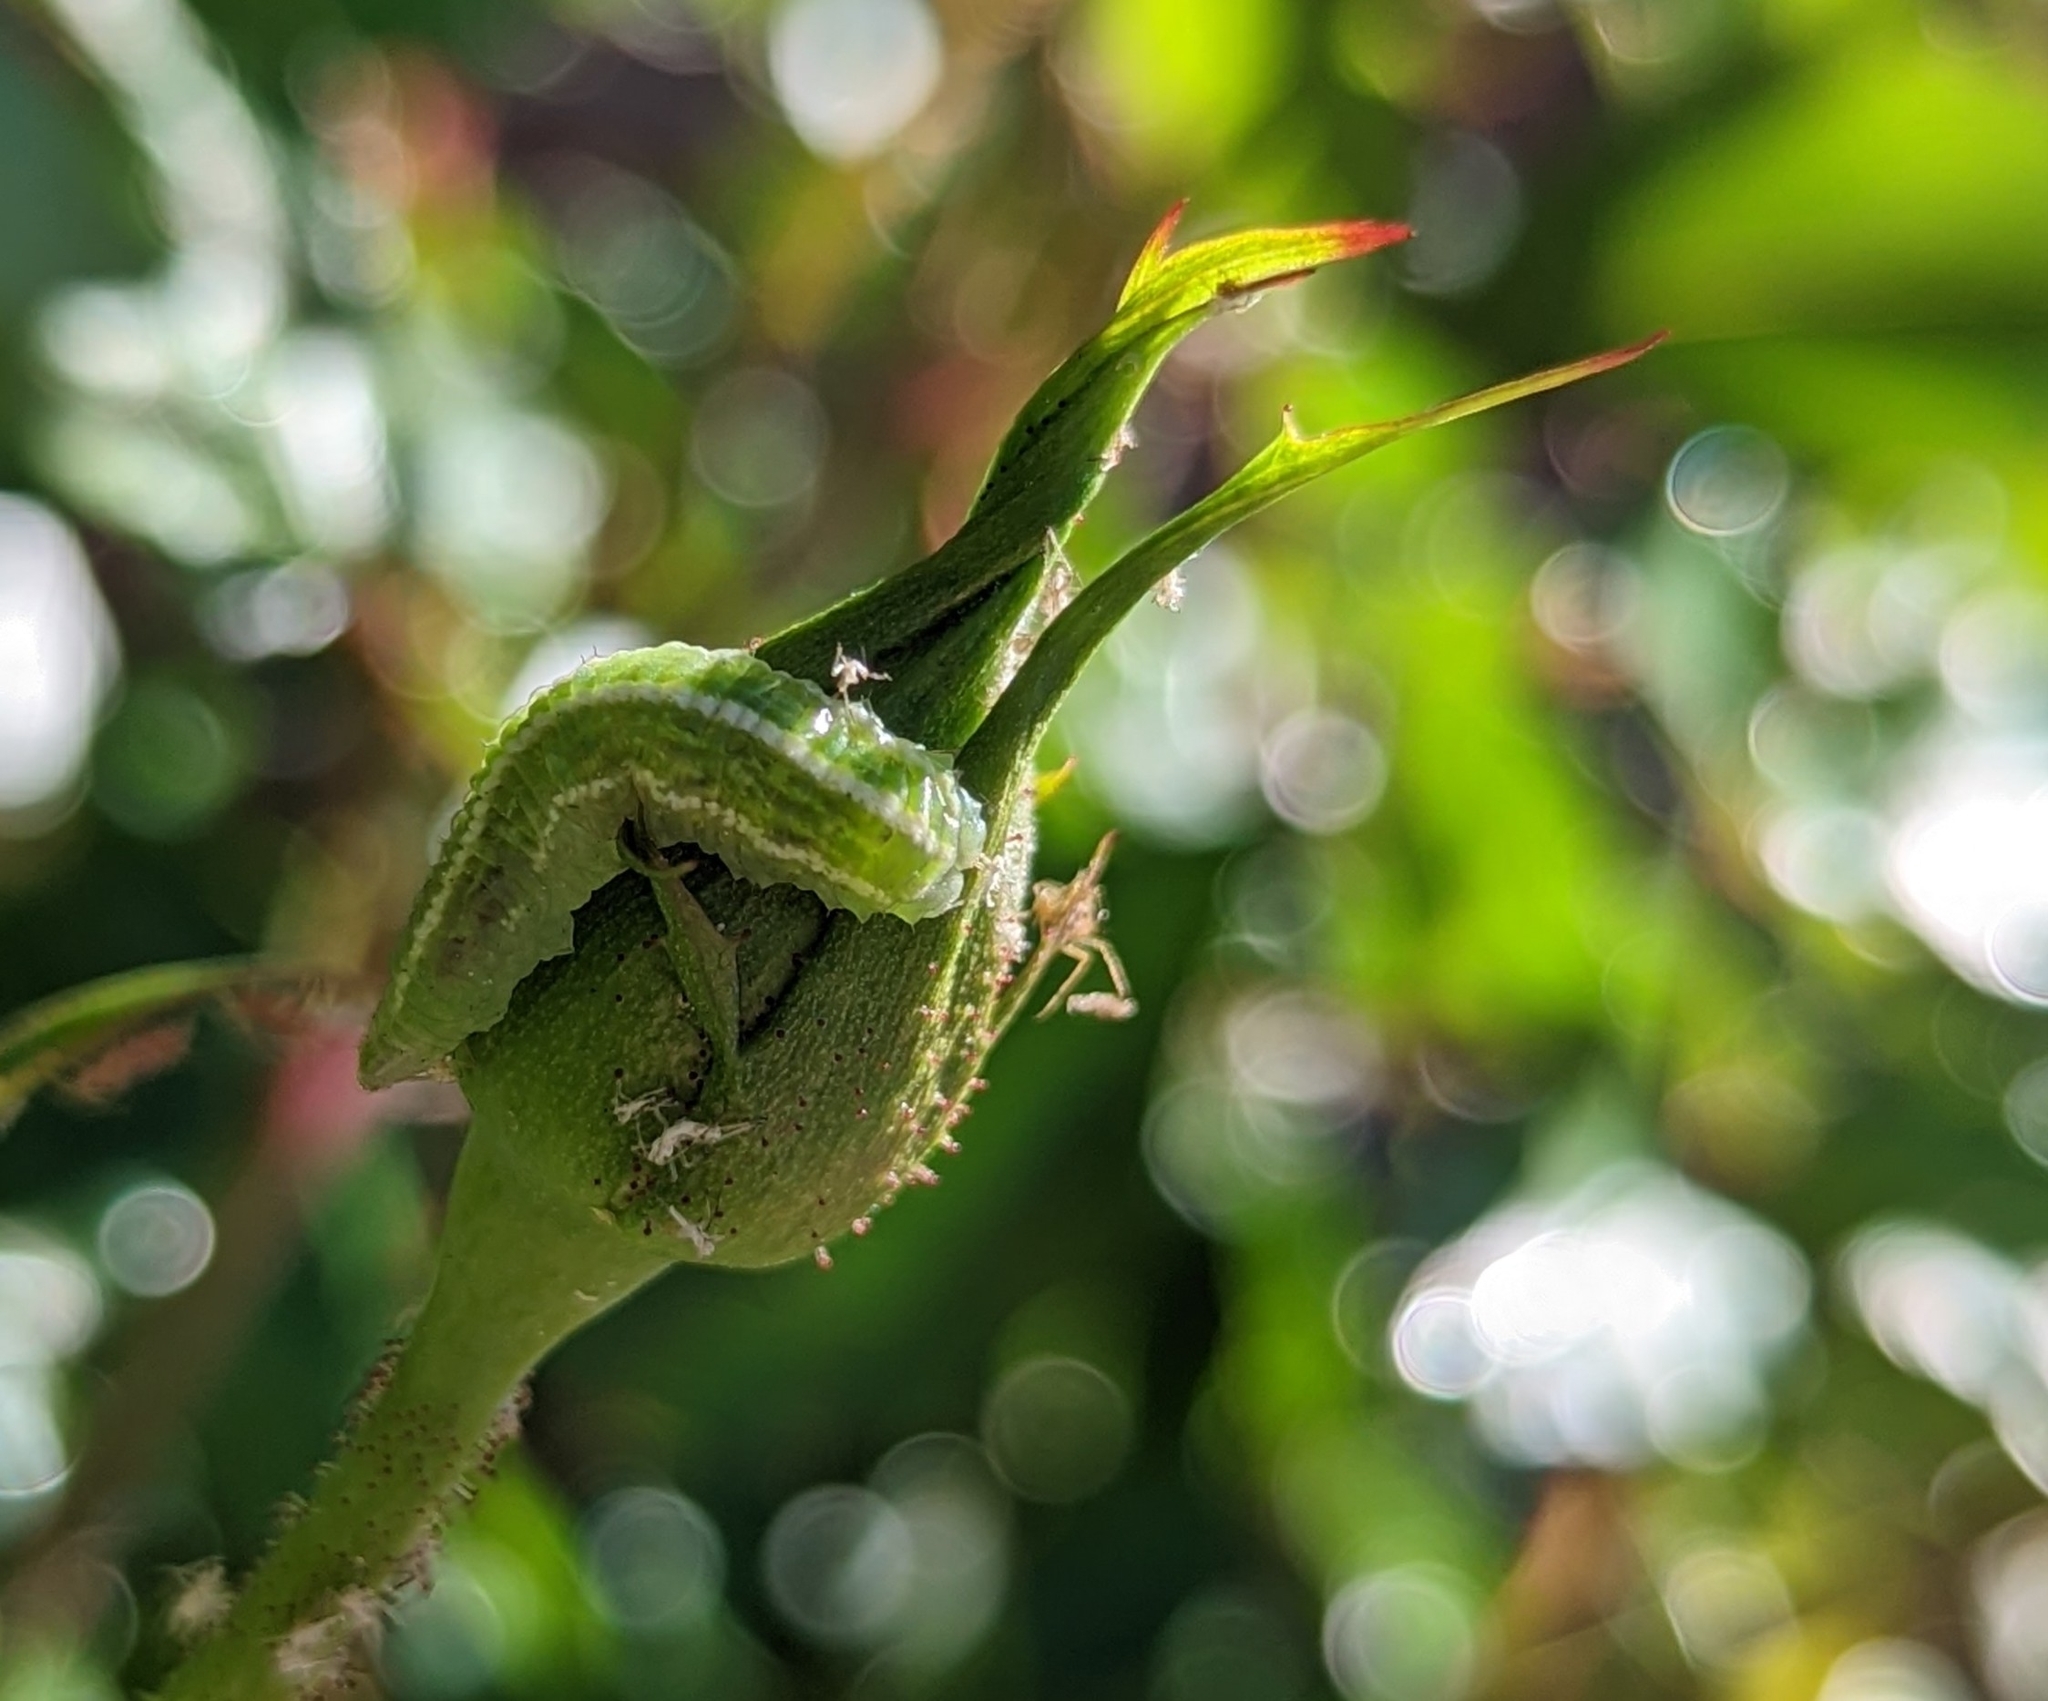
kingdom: Animalia
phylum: Arthropoda
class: Insecta
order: Diptera
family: Syrphidae
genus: Scaeva
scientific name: Scaeva affinis
